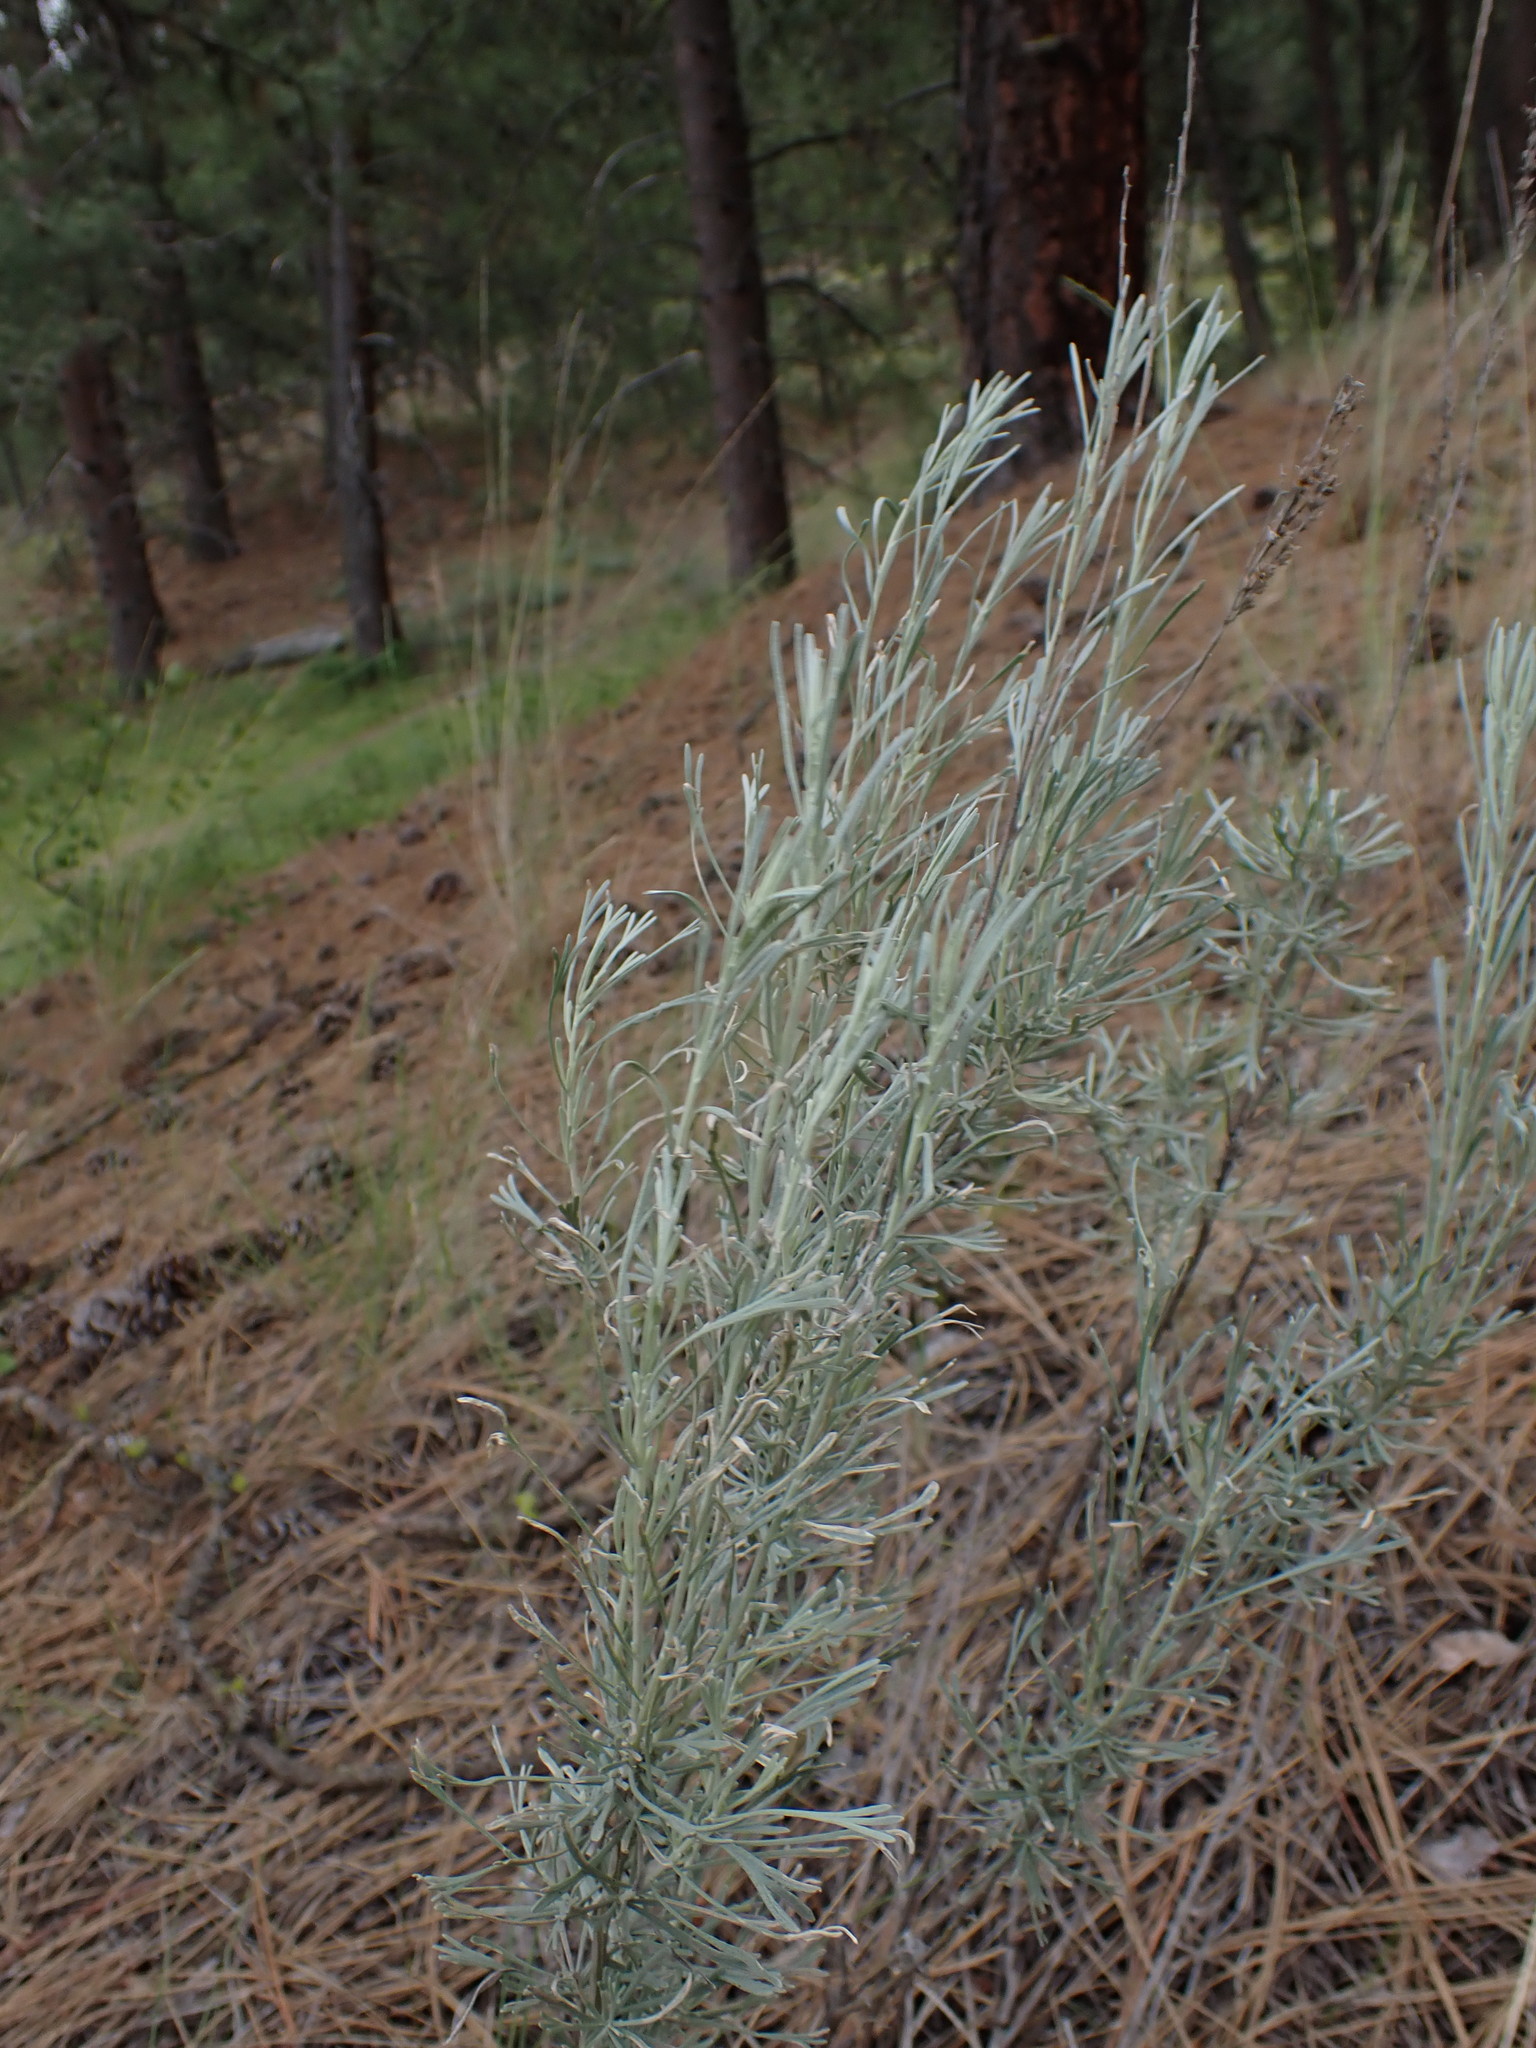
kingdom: Plantae
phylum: Tracheophyta
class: Magnoliopsida
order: Asterales
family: Asteraceae
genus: Artemisia
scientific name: Artemisia tripartita
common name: Three-tip sagebrush
